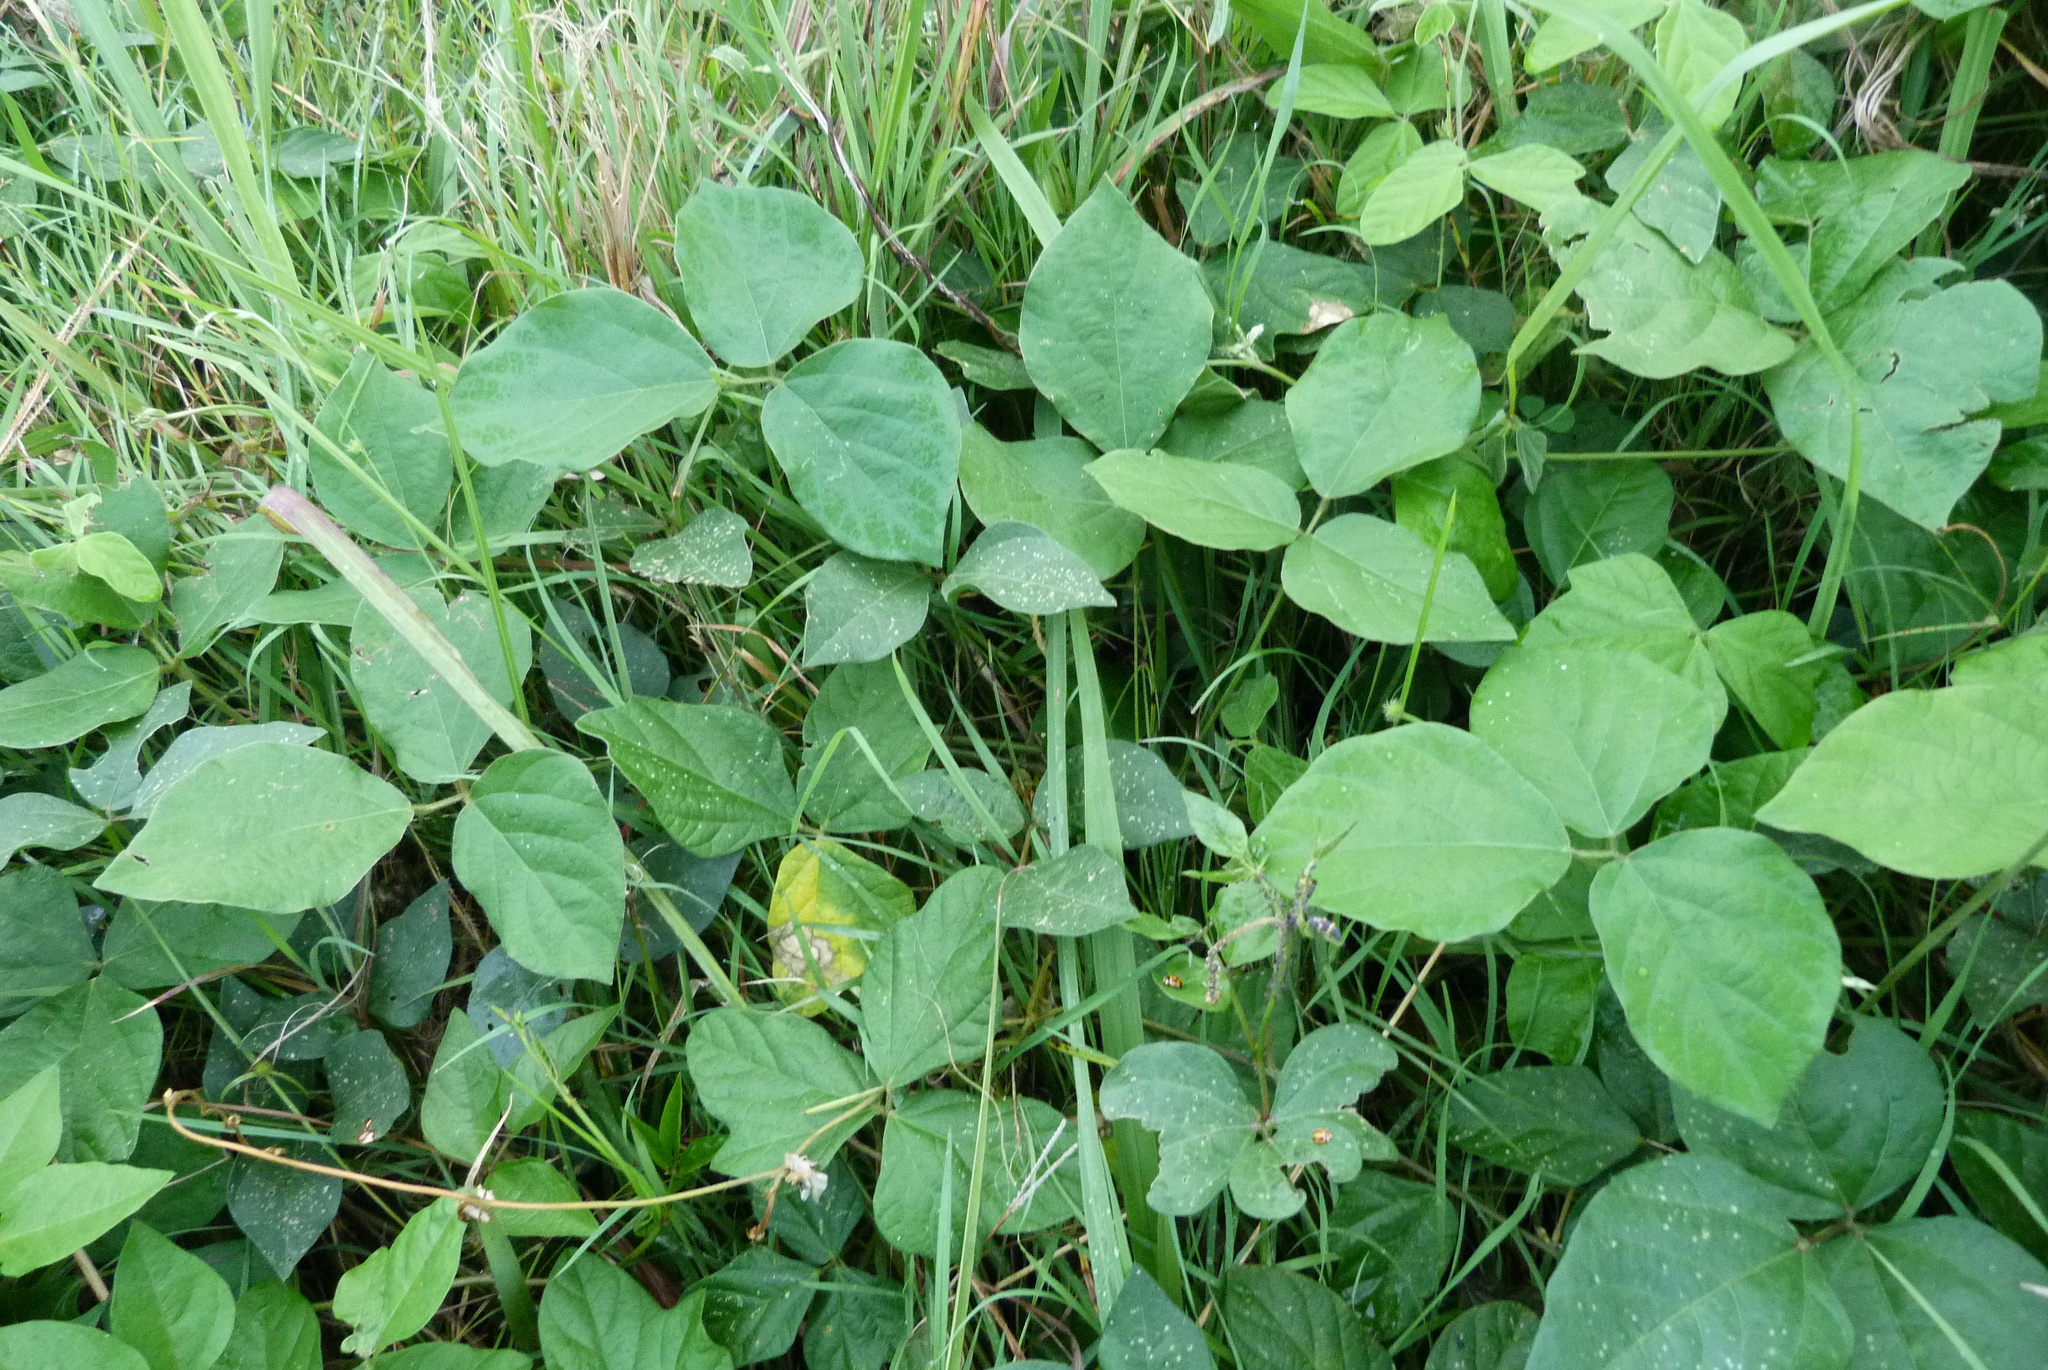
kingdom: Plantae
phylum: Tracheophyta
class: Magnoliopsida
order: Fabales
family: Fabaceae
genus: Neonotonia
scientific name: Neonotonia wightii
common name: Perennial soybean
